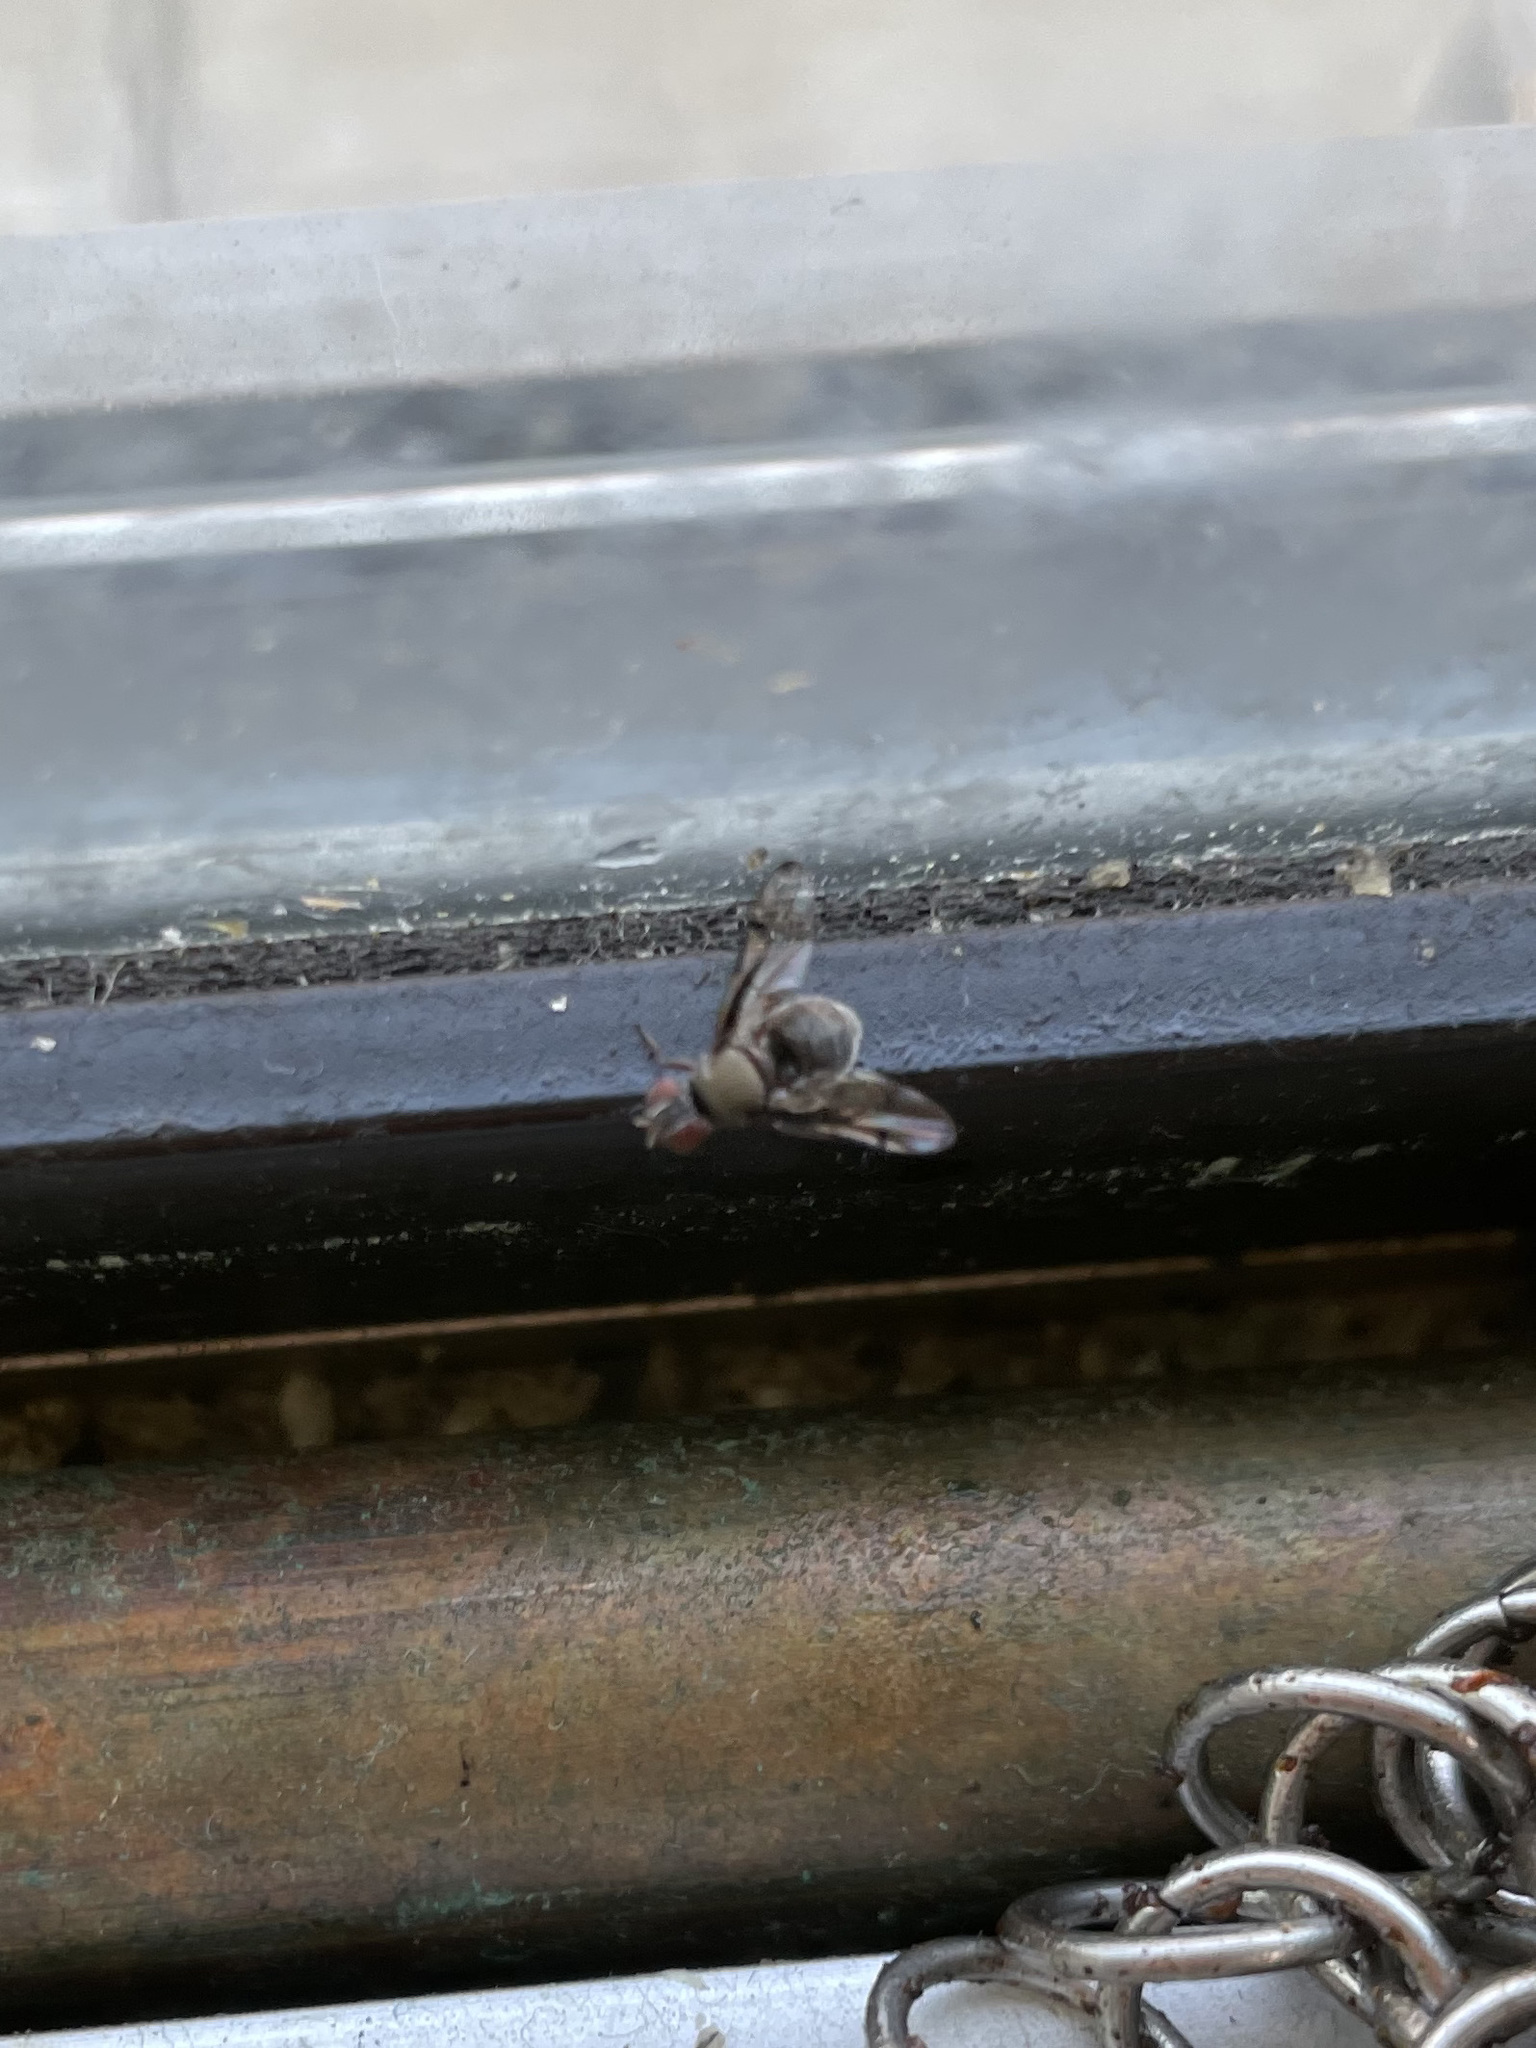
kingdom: Animalia
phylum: Arthropoda
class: Insecta
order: Diptera
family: Platystomatidae
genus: Pogonortalis
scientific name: Pogonortalis doclea
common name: Boatman fly
